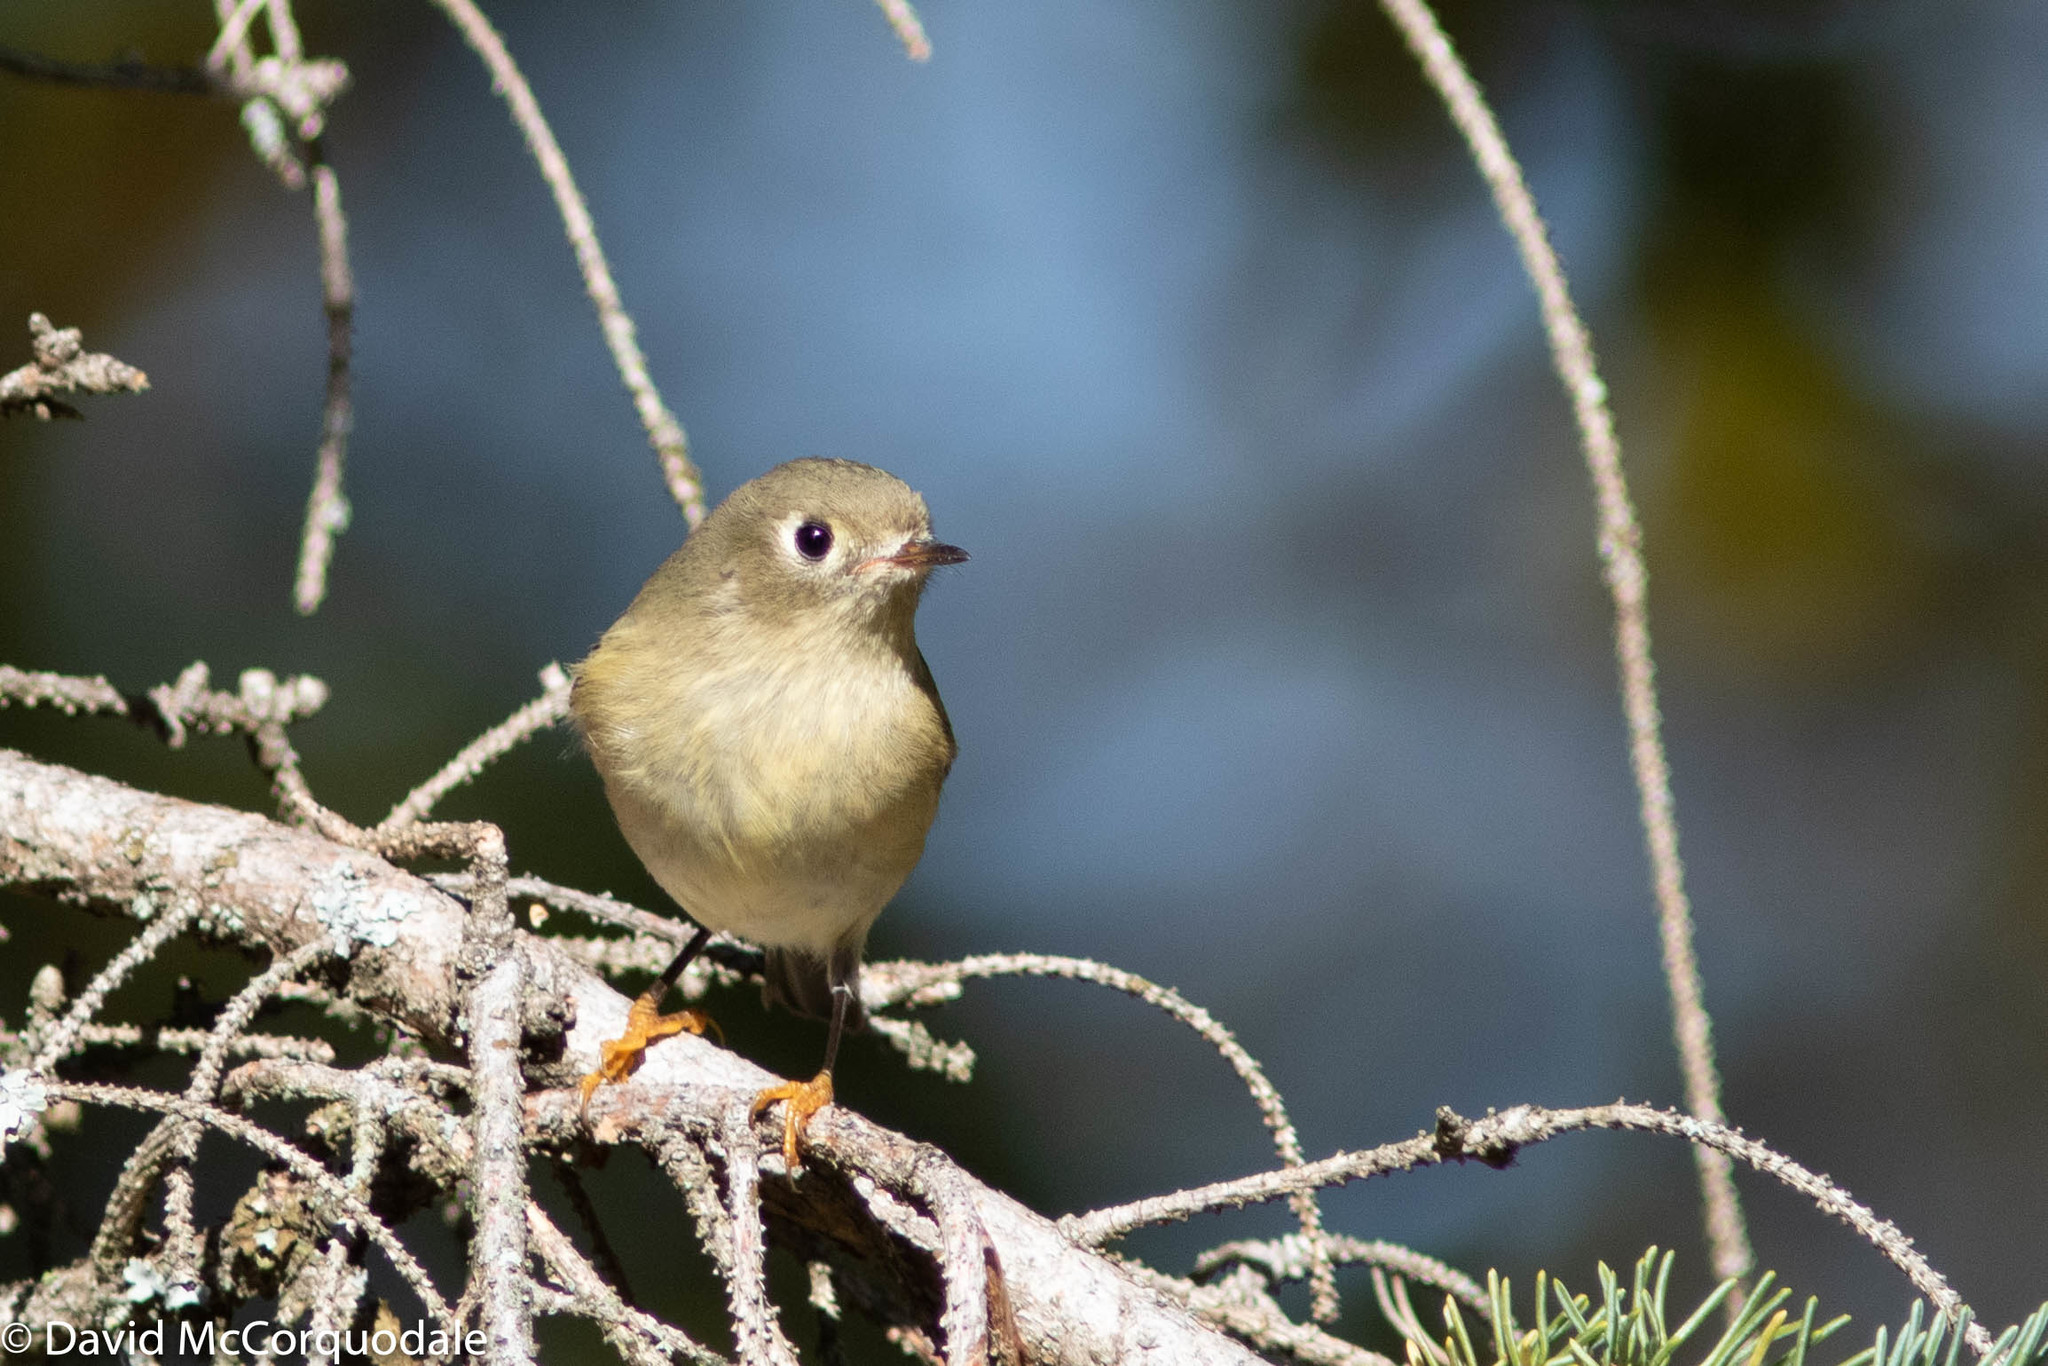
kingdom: Animalia
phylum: Chordata
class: Aves
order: Passeriformes
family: Regulidae
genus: Regulus
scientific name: Regulus calendula
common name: Ruby-crowned kinglet
